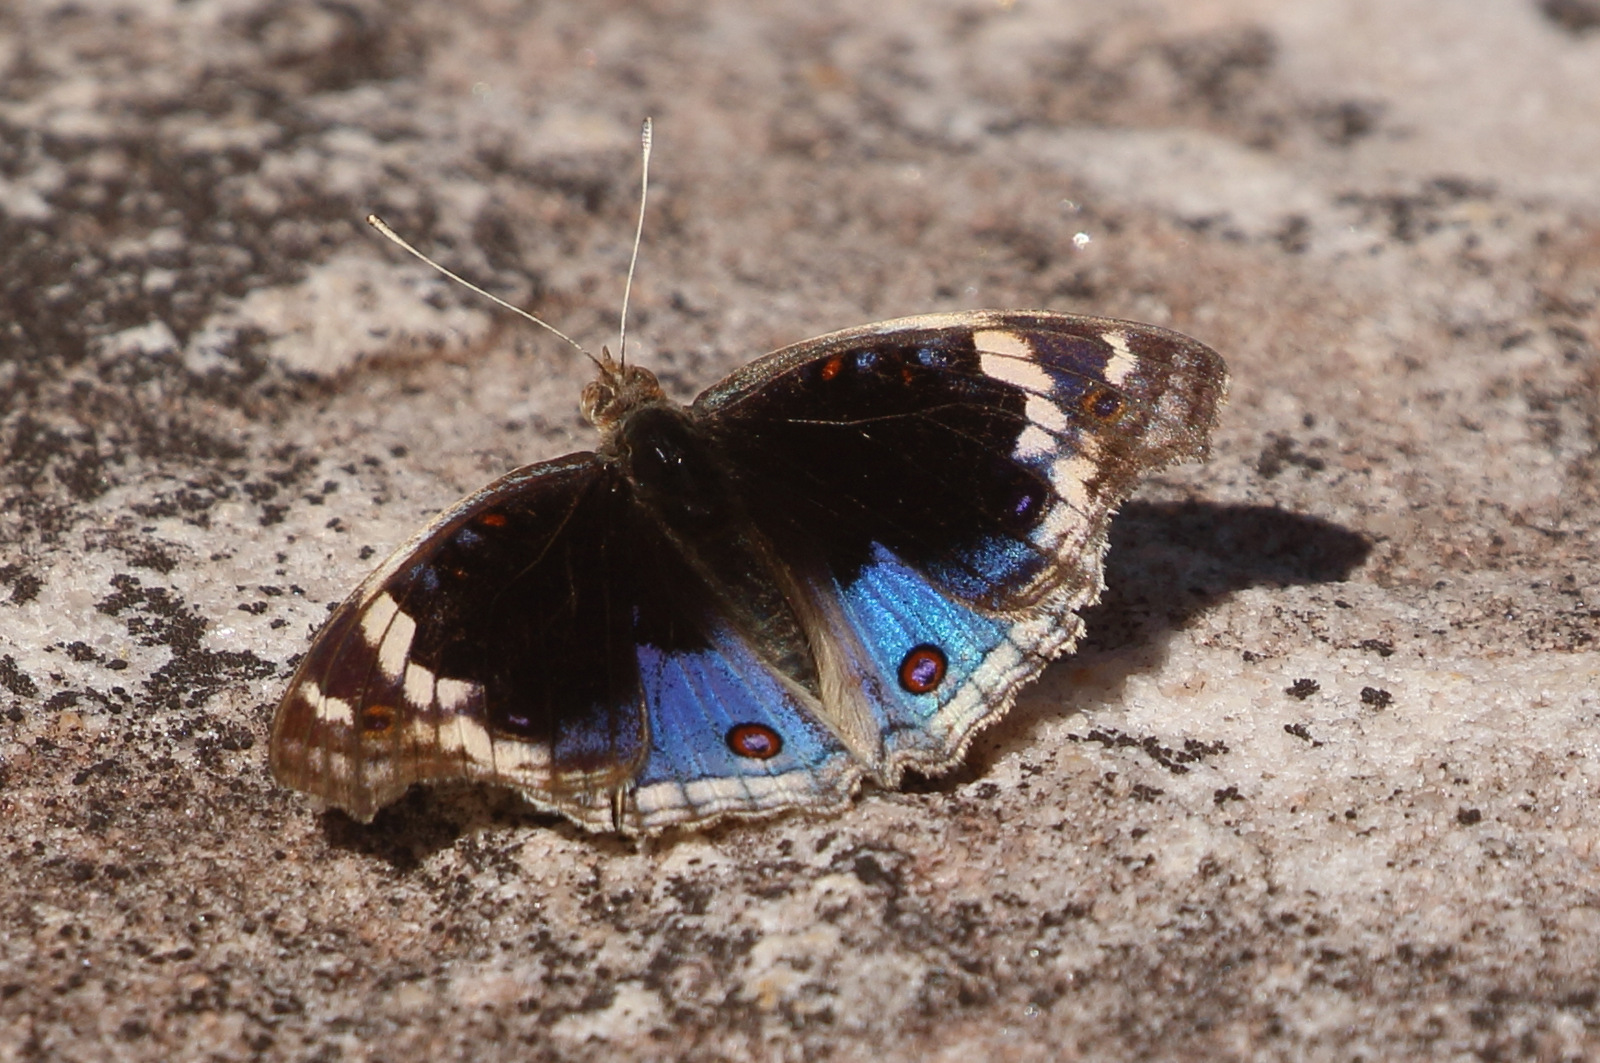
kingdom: Animalia
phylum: Arthropoda
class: Insecta
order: Lepidoptera
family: Nymphalidae
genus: Junonia
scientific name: Junonia orithya
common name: Blue pansy
